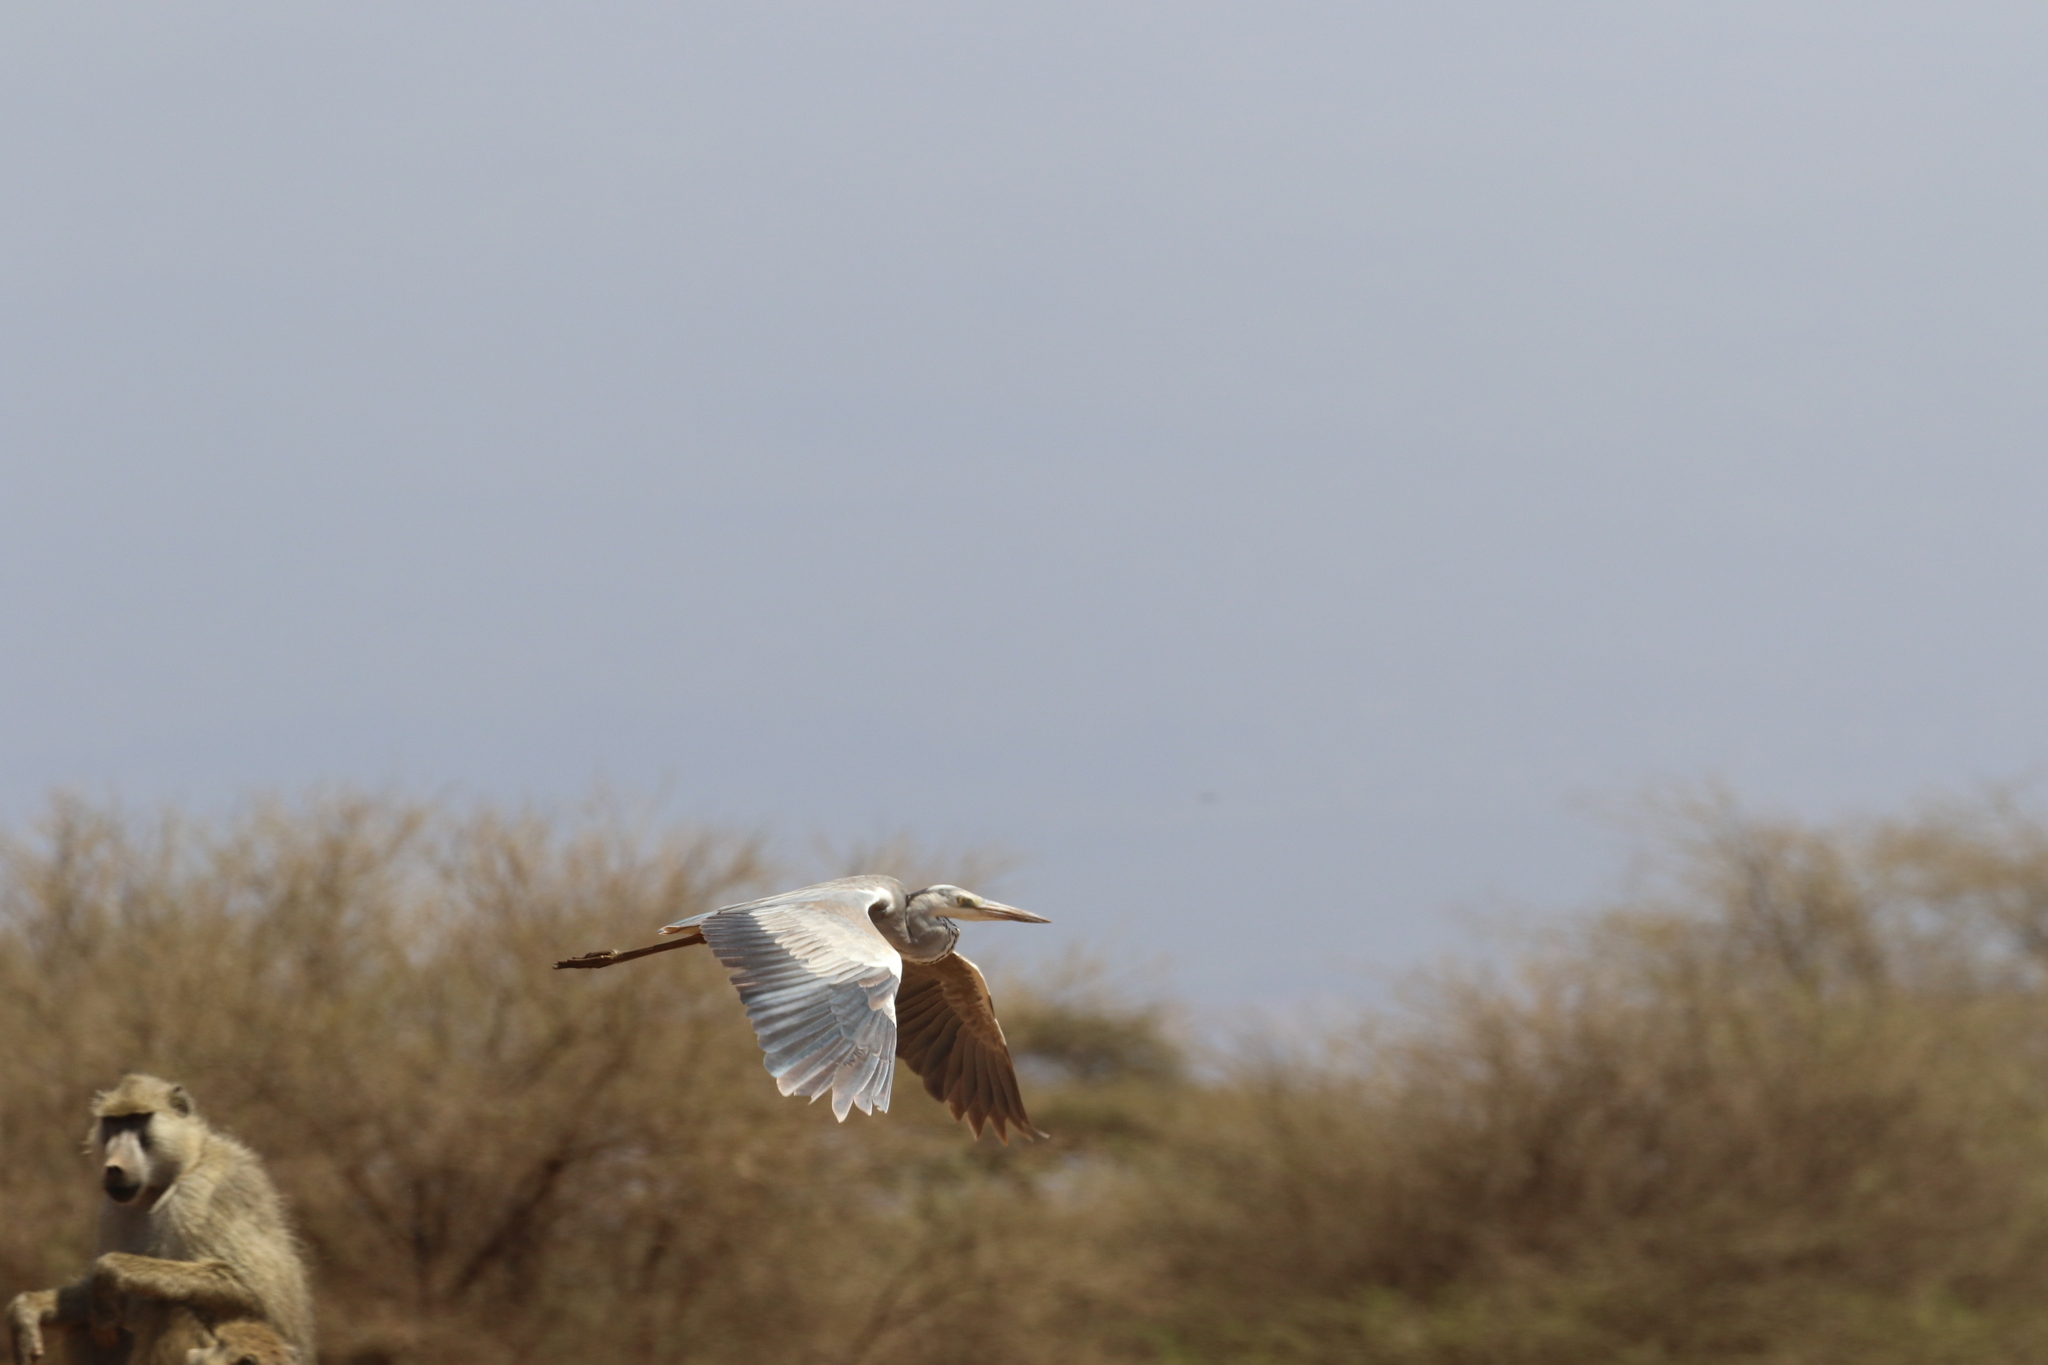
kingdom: Animalia
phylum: Chordata
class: Aves
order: Pelecaniformes
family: Ardeidae
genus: Ardea
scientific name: Ardea cinerea
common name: Grey heron
